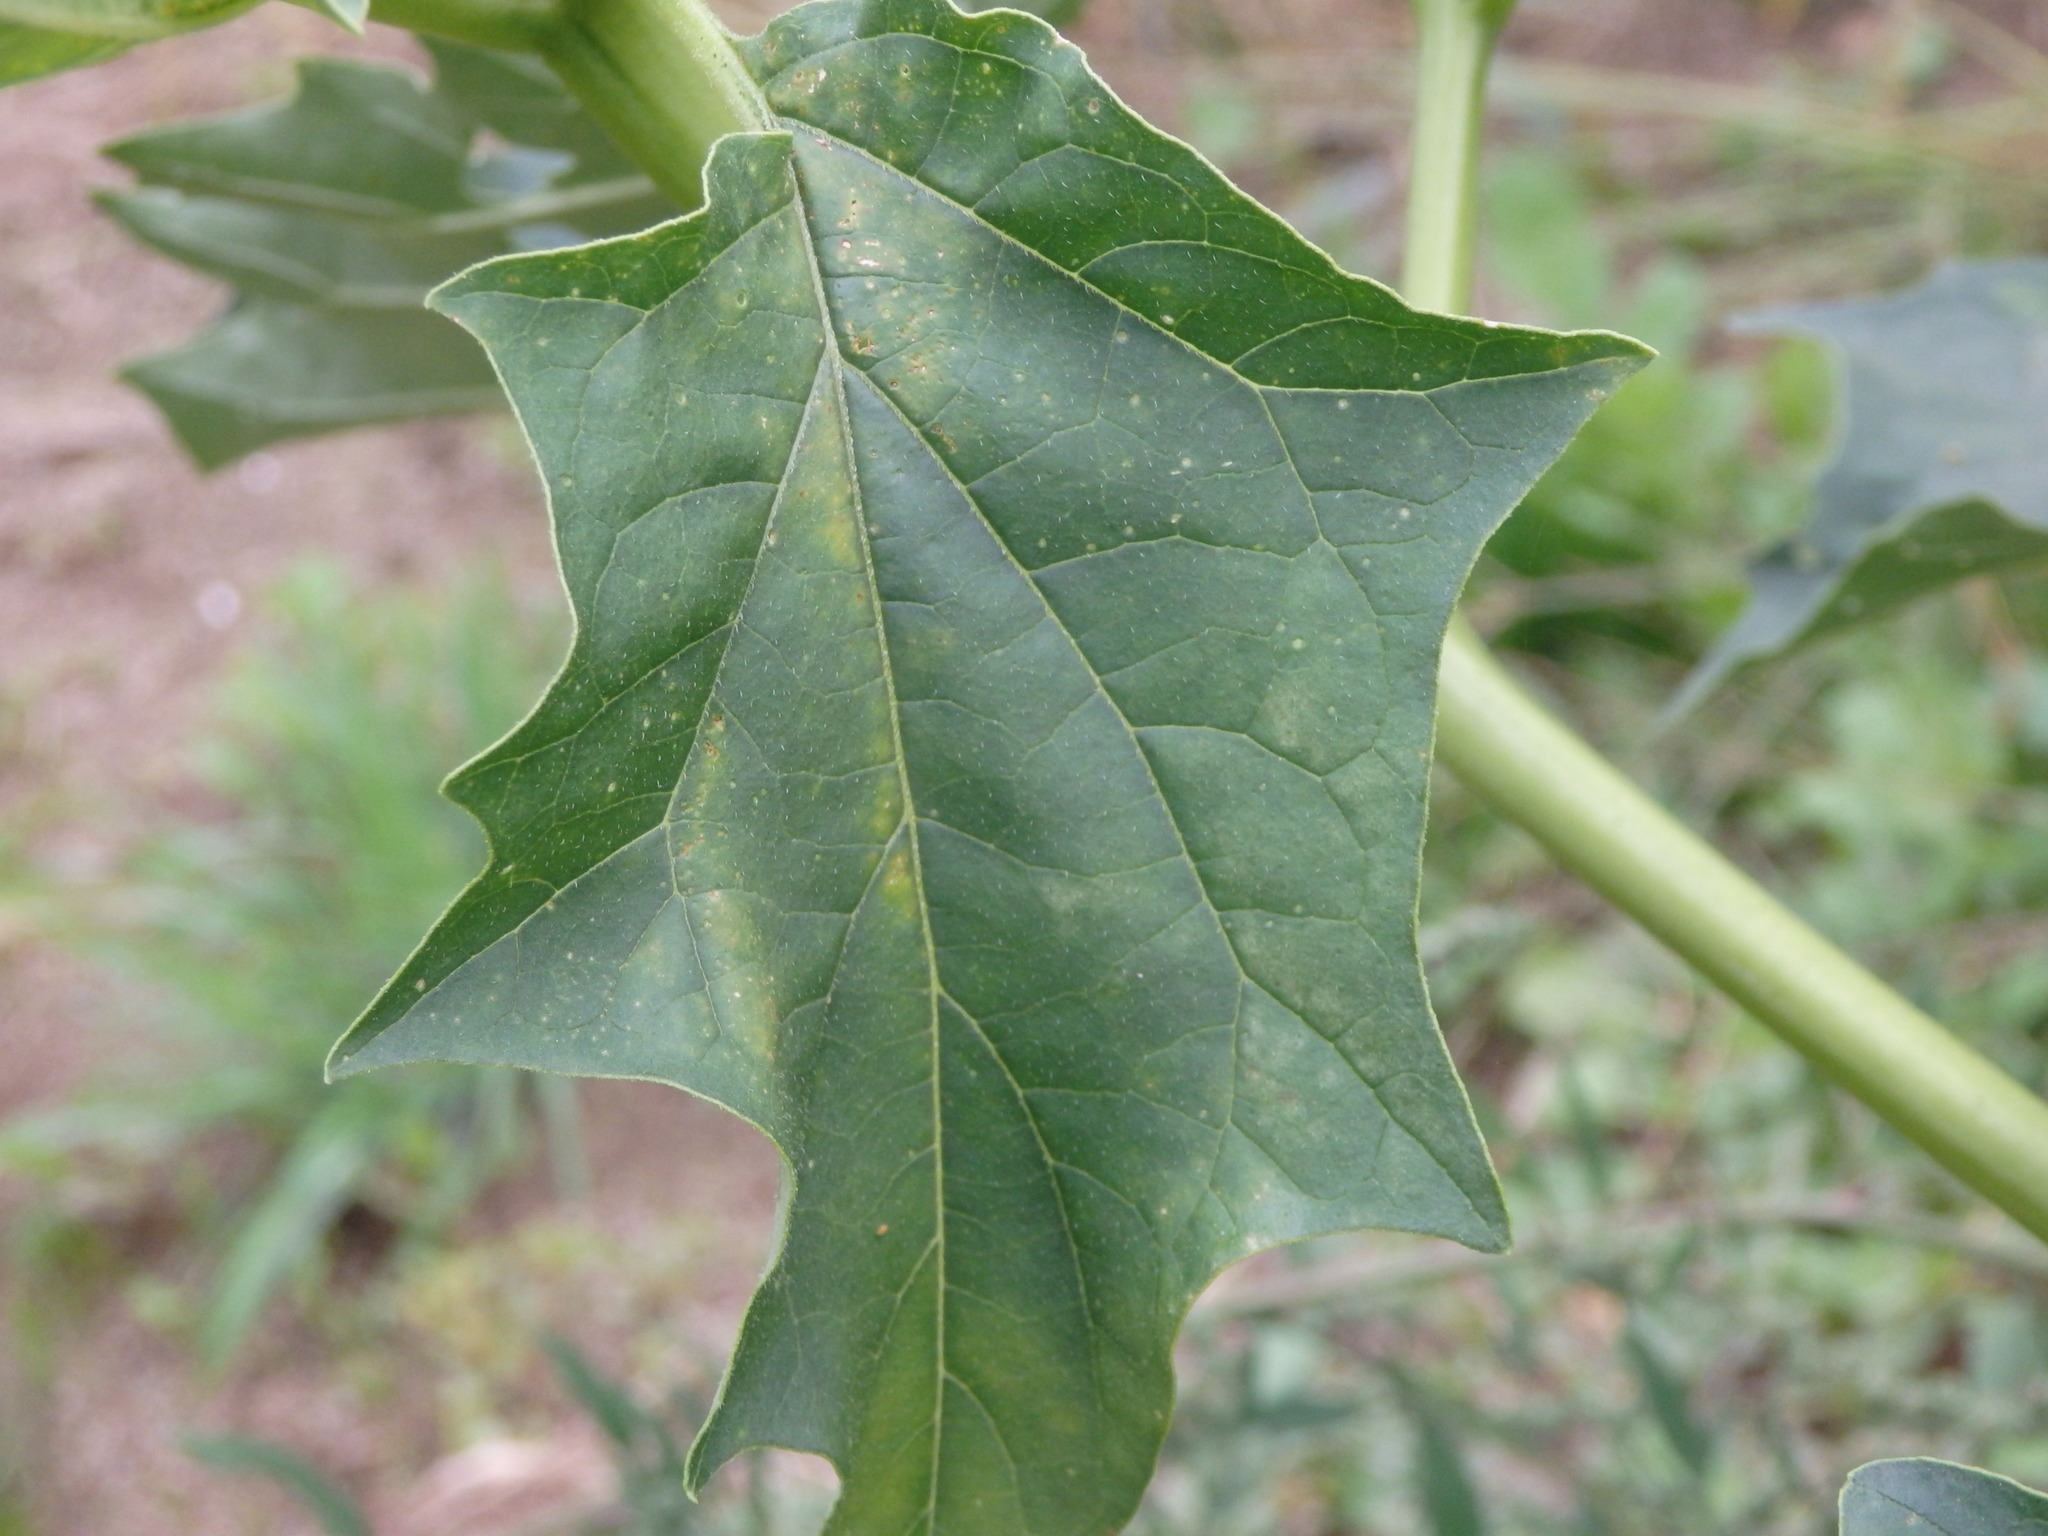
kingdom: Plantae
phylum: Tracheophyta
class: Magnoliopsida
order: Solanales
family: Solanaceae
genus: Datura
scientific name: Datura stramonium
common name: Thorn-apple
